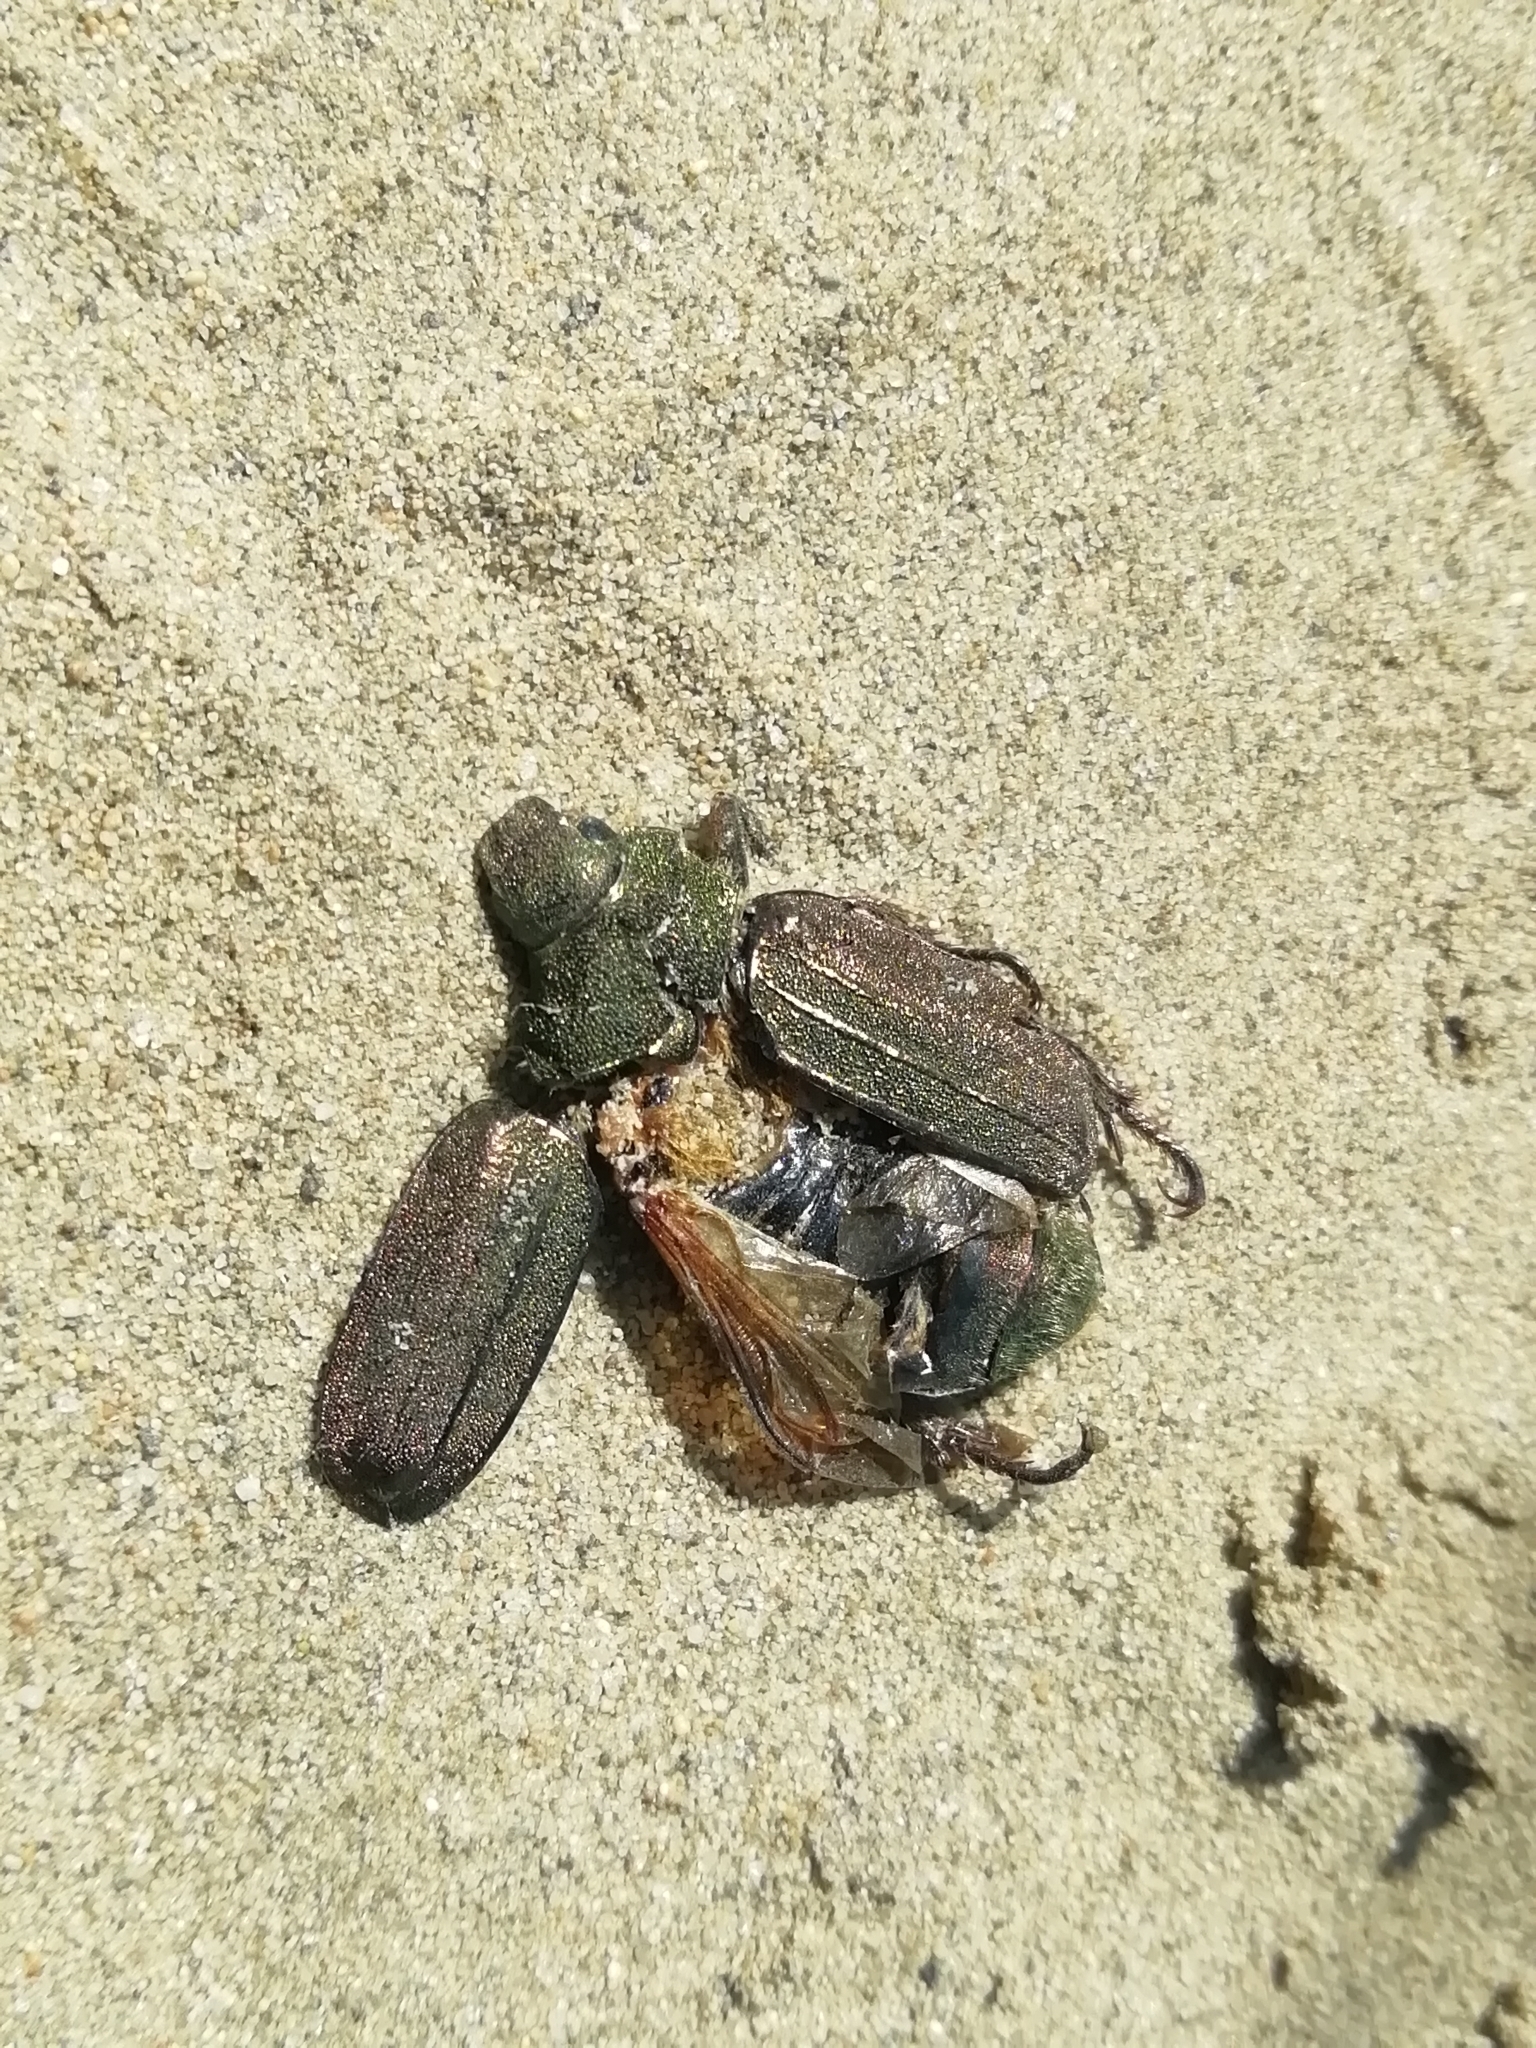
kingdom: Animalia
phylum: Arthropoda
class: Insecta
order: Coleoptera
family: Scarabaeidae
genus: Mimela
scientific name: Mimela holosericea
